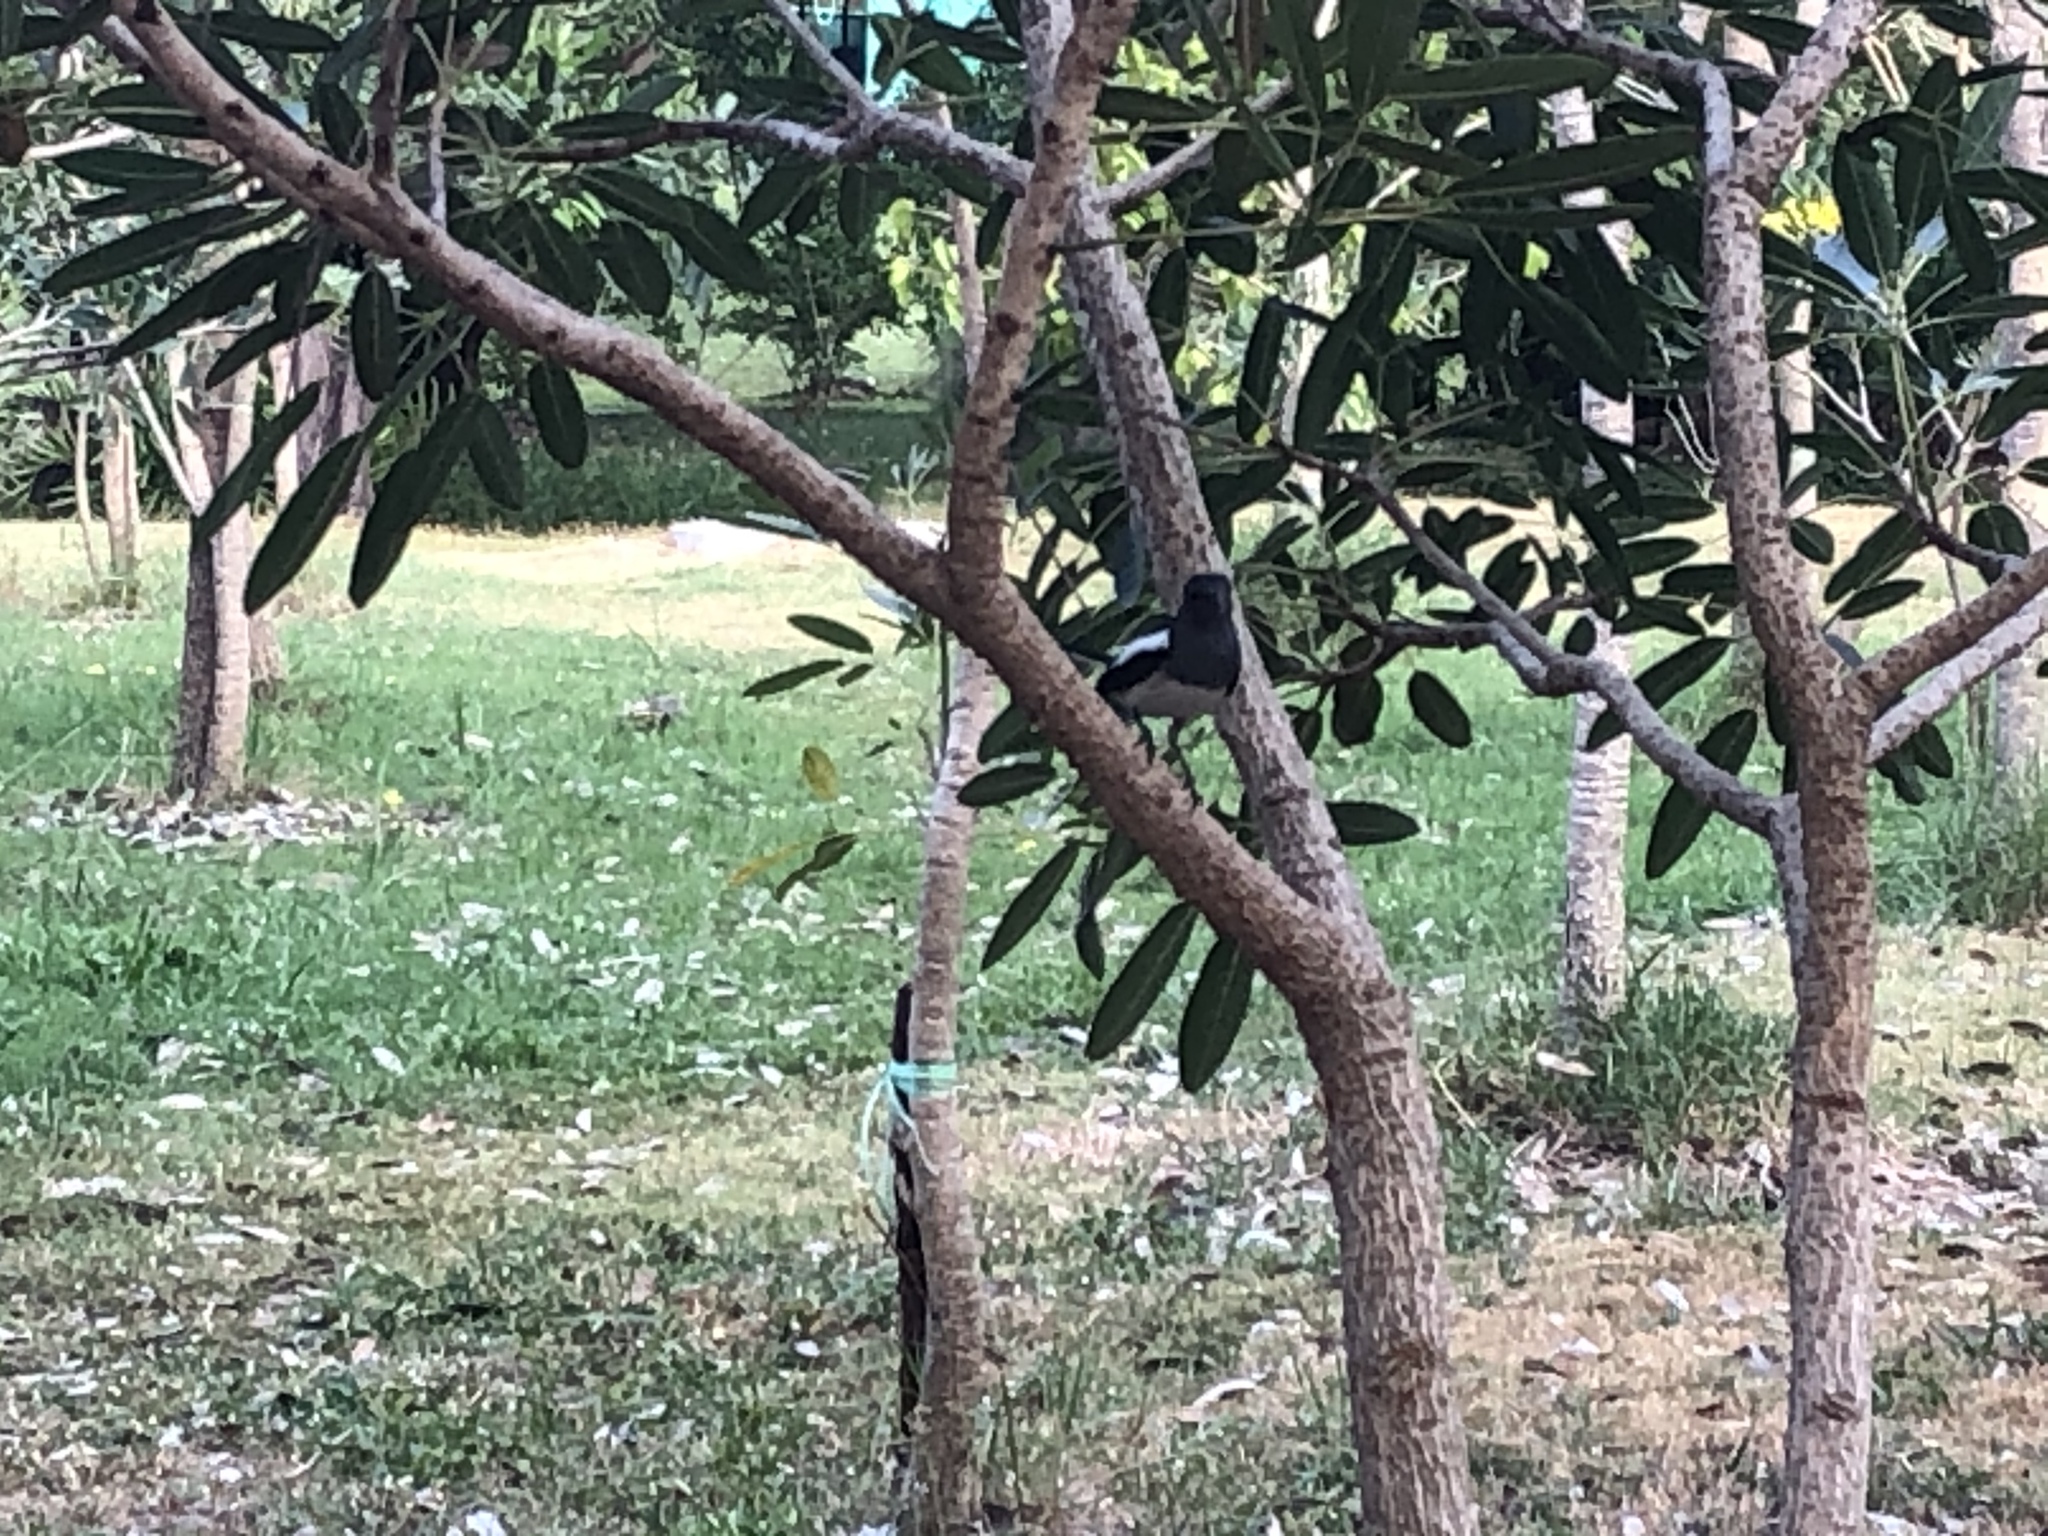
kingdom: Animalia
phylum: Chordata
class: Aves
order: Passeriformes
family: Muscicapidae
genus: Copsychus
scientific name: Copsychus saularis
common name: Oriental magpie-robin
